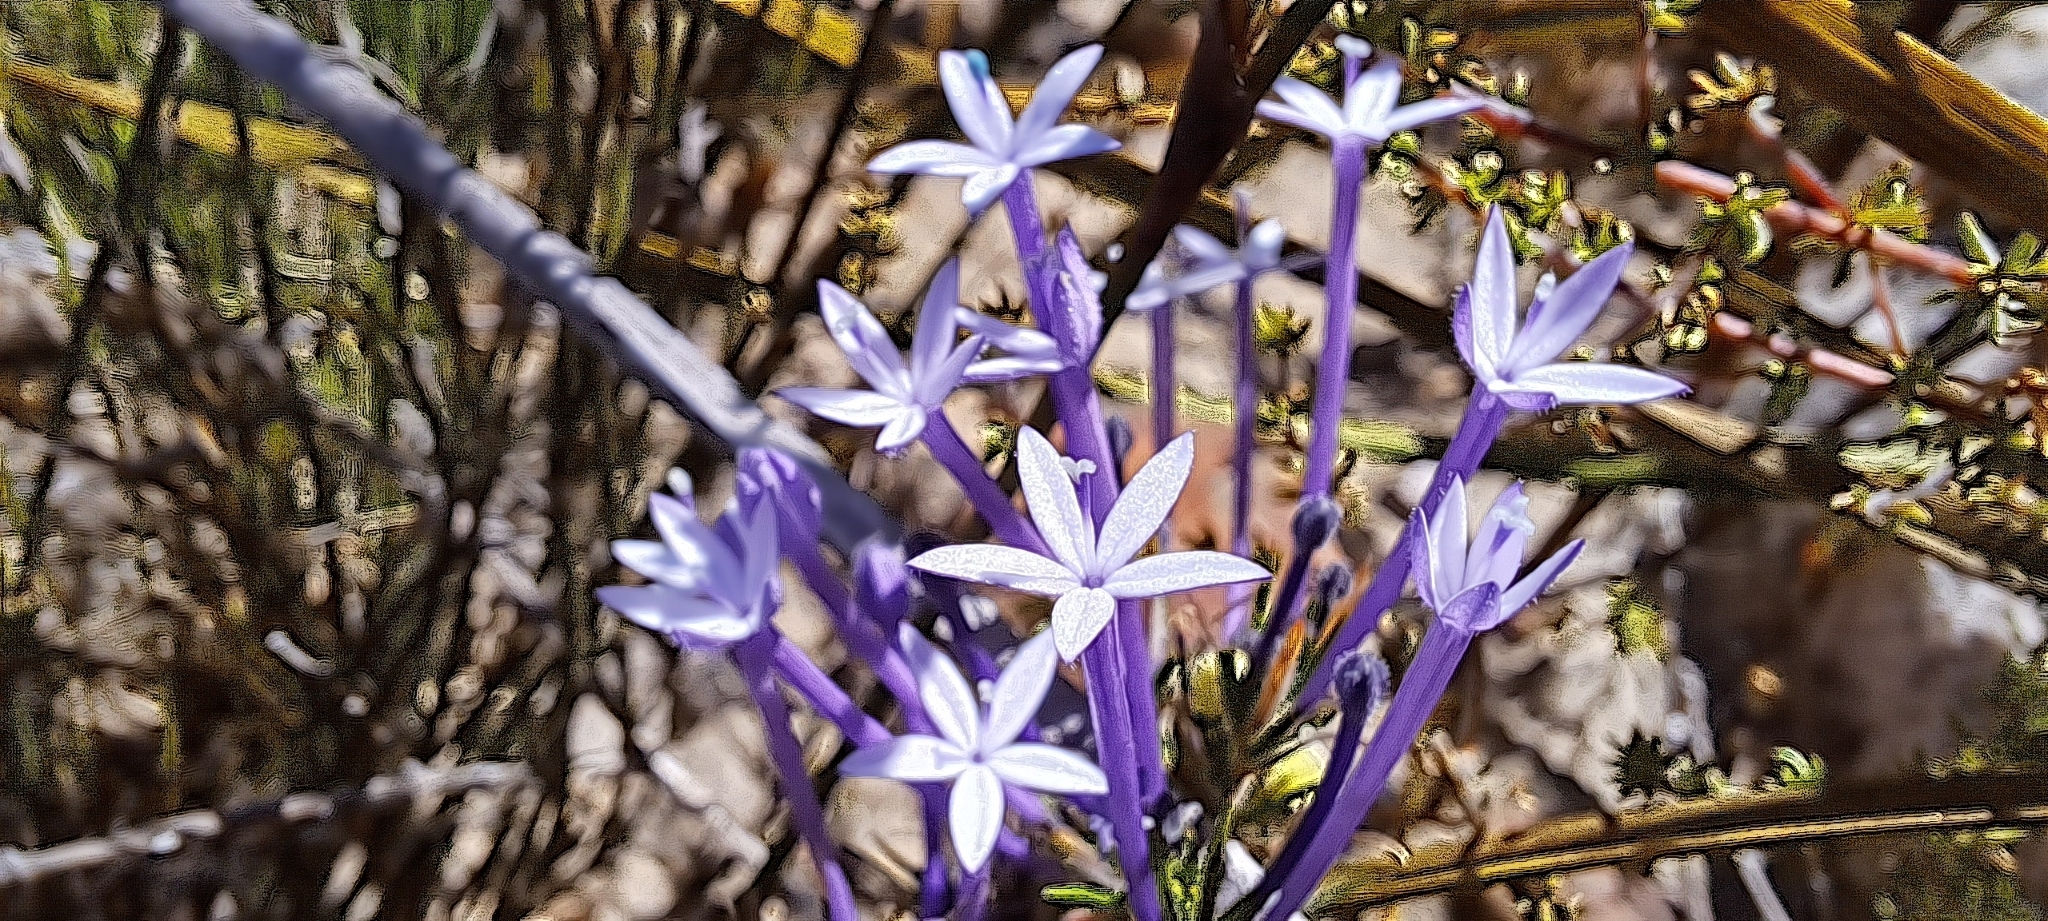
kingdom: Plantae
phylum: Tracheophyta
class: Magnoliopsida
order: Asterales
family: Campanulaceae
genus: Merciera
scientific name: Merciera tenuifolia
